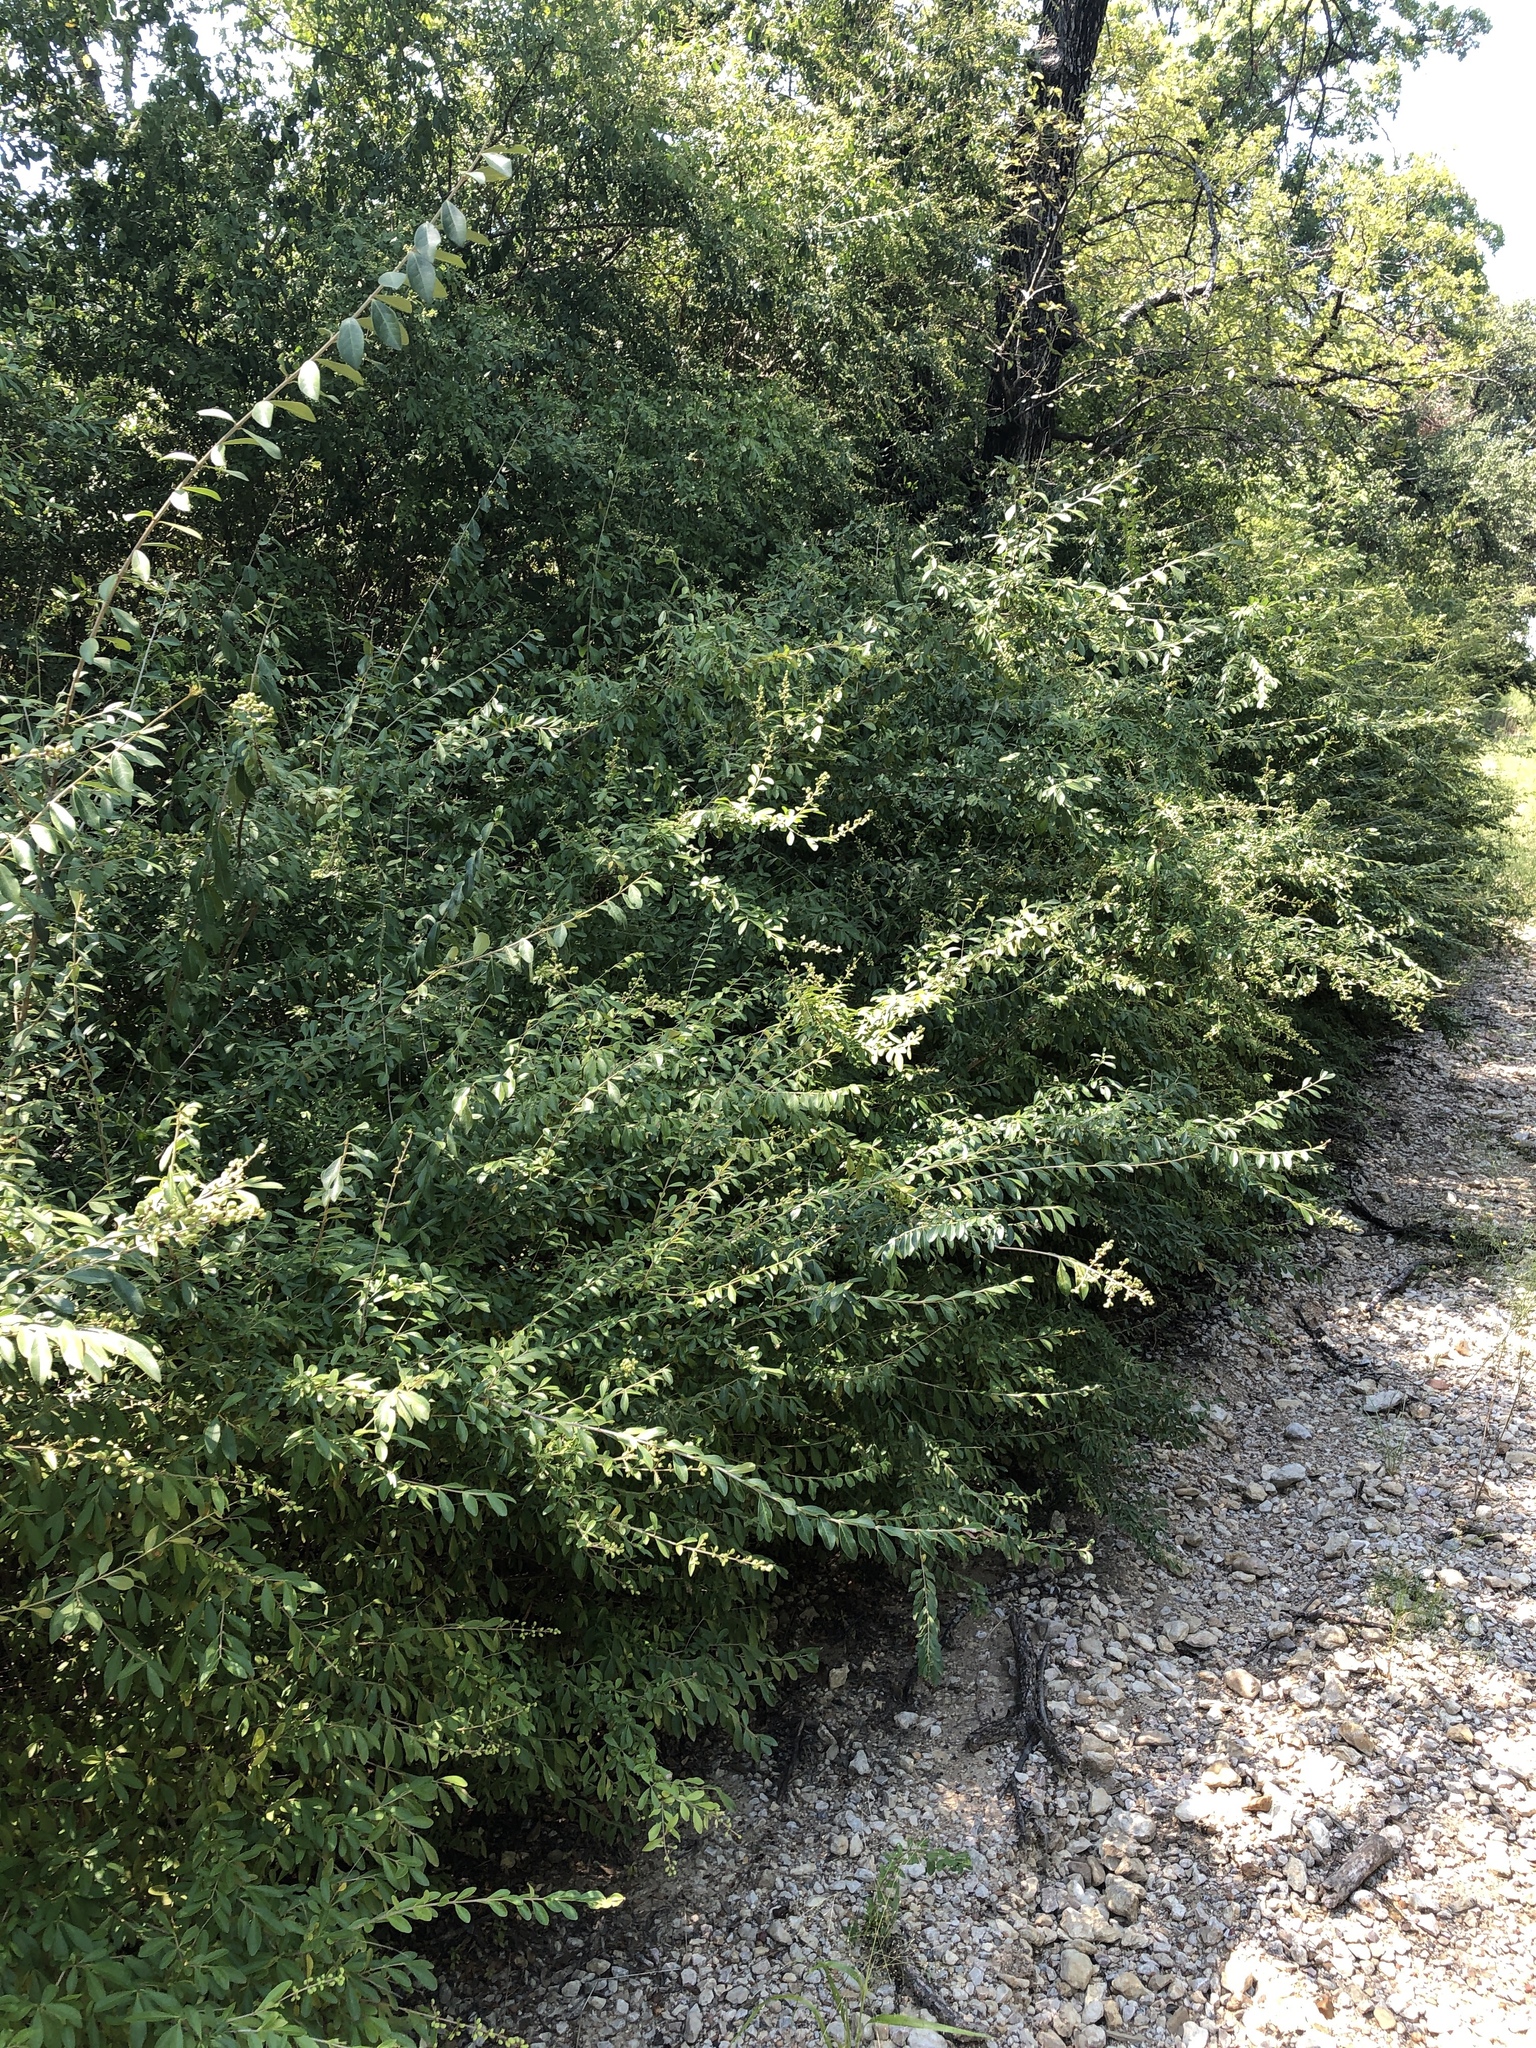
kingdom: Plantae
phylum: Tracheophyta
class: Magnoliopsida
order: Lamiales
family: Oleaceae
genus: Ligustrum
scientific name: Ligustrum quihoui
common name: Waxyleaf privet
